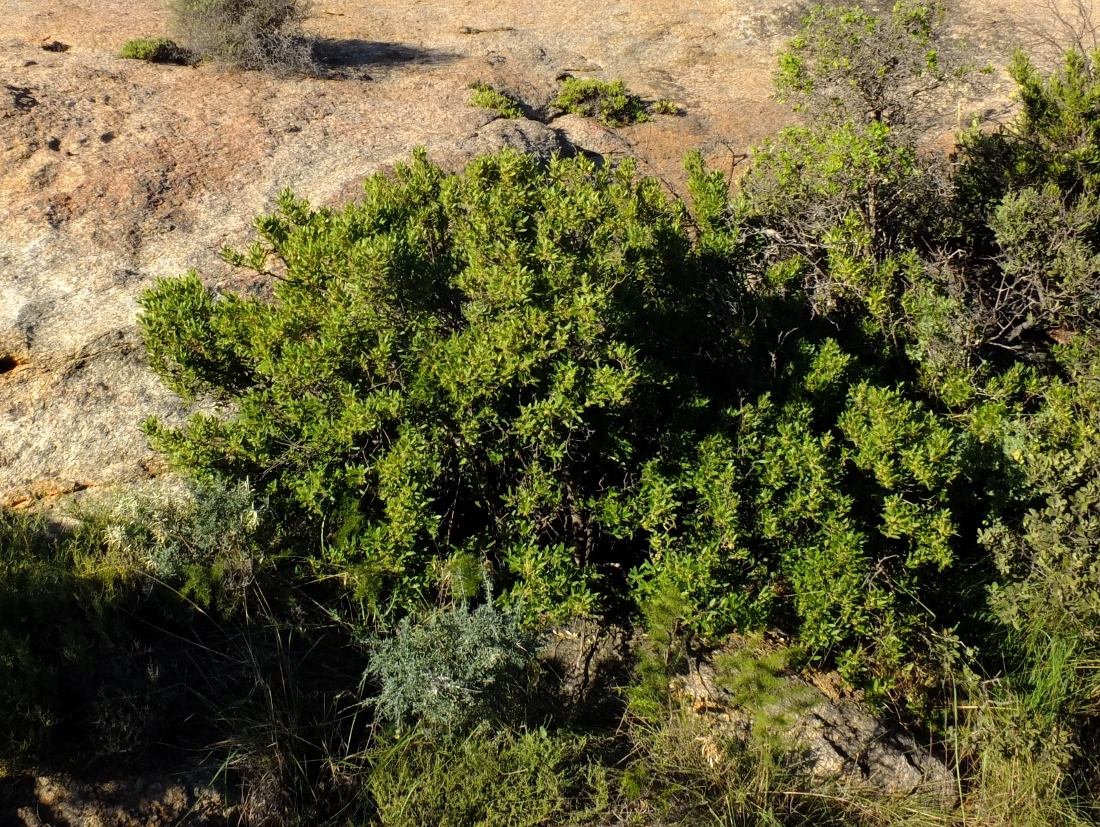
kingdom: Plantae
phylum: Tracheophyta
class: Magnoliopsida
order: Celastrales
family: Celastraceae
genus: Gymnosporia
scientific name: Gymnosporia laurina
